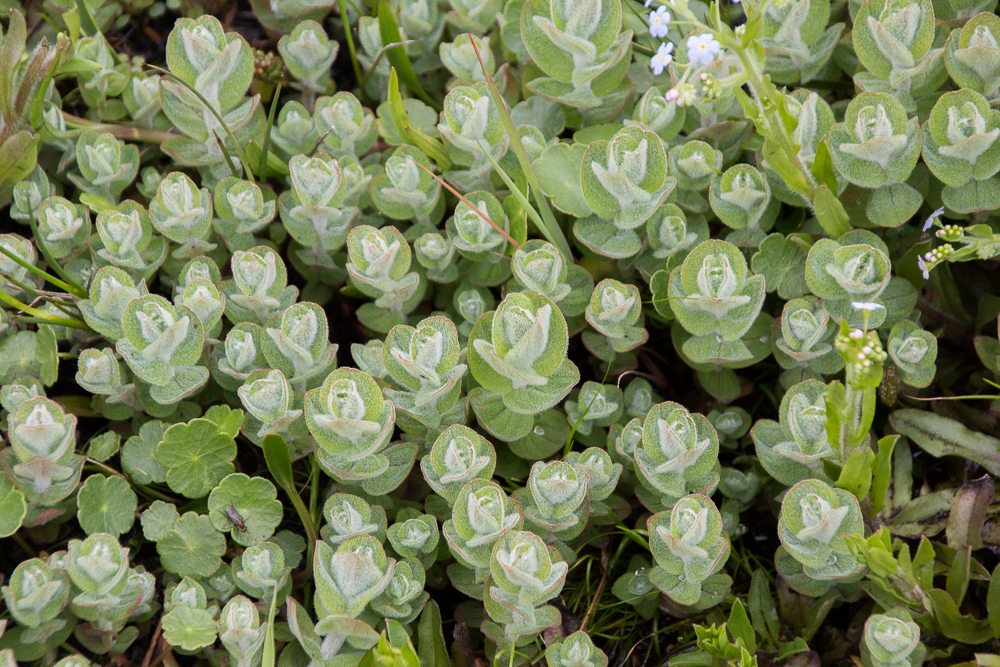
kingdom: Plantae
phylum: Tracheophyta
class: Magnoliopsida
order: Malpighiales
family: Hypericaceae
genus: Hypericum
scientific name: Hypericum elodes
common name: Marsh st. john's-wort
